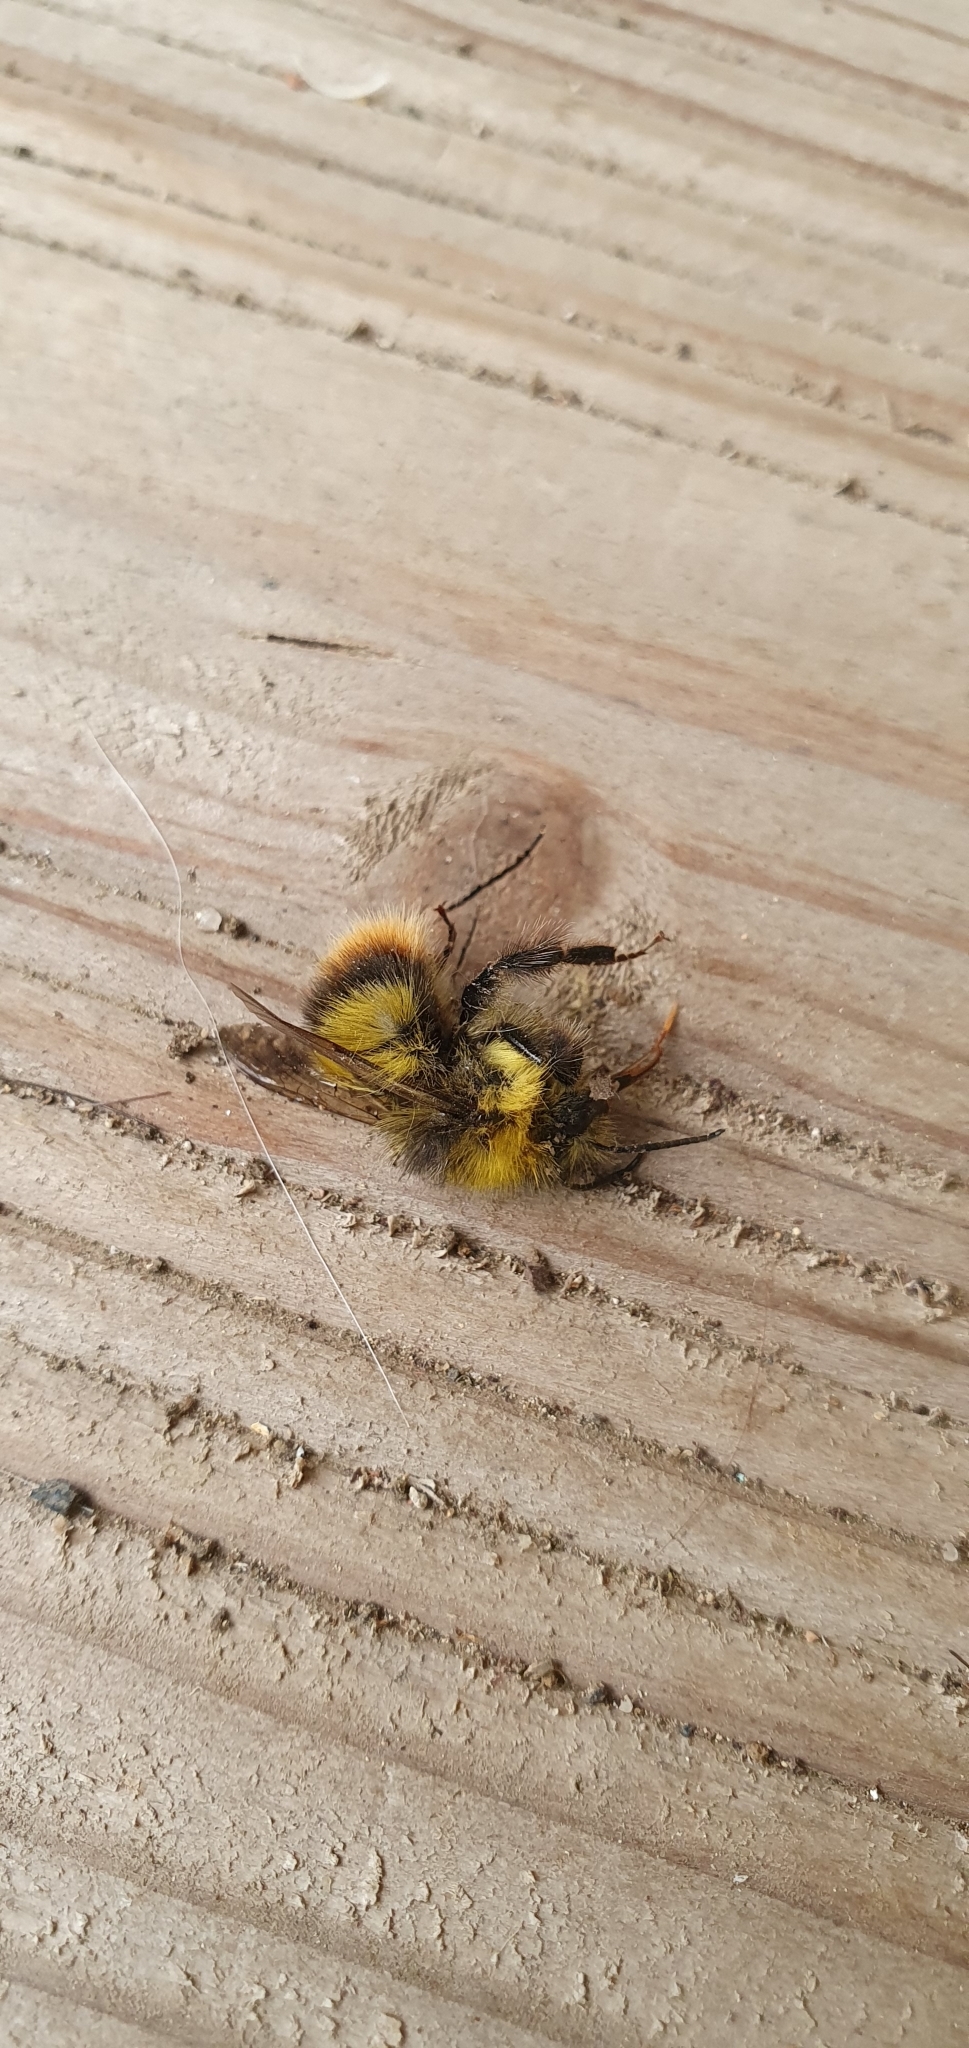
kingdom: Animalia
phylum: Arthropoda
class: Insecta
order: Hymenoptera
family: Apidae
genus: Bombus
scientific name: Bombus pratorum
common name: Early humble-bee
